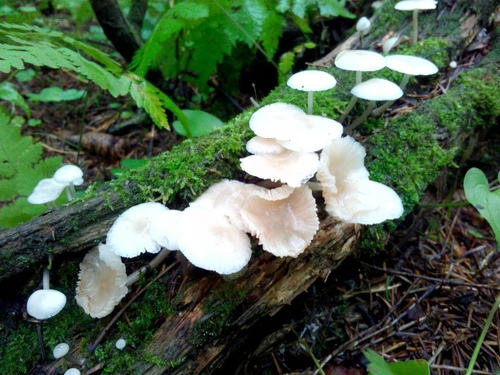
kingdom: Fungi
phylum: Basidiomycota
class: Agaricomycetes
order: Agaricales
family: Mycenaceae
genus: Mycena
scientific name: Mycena
